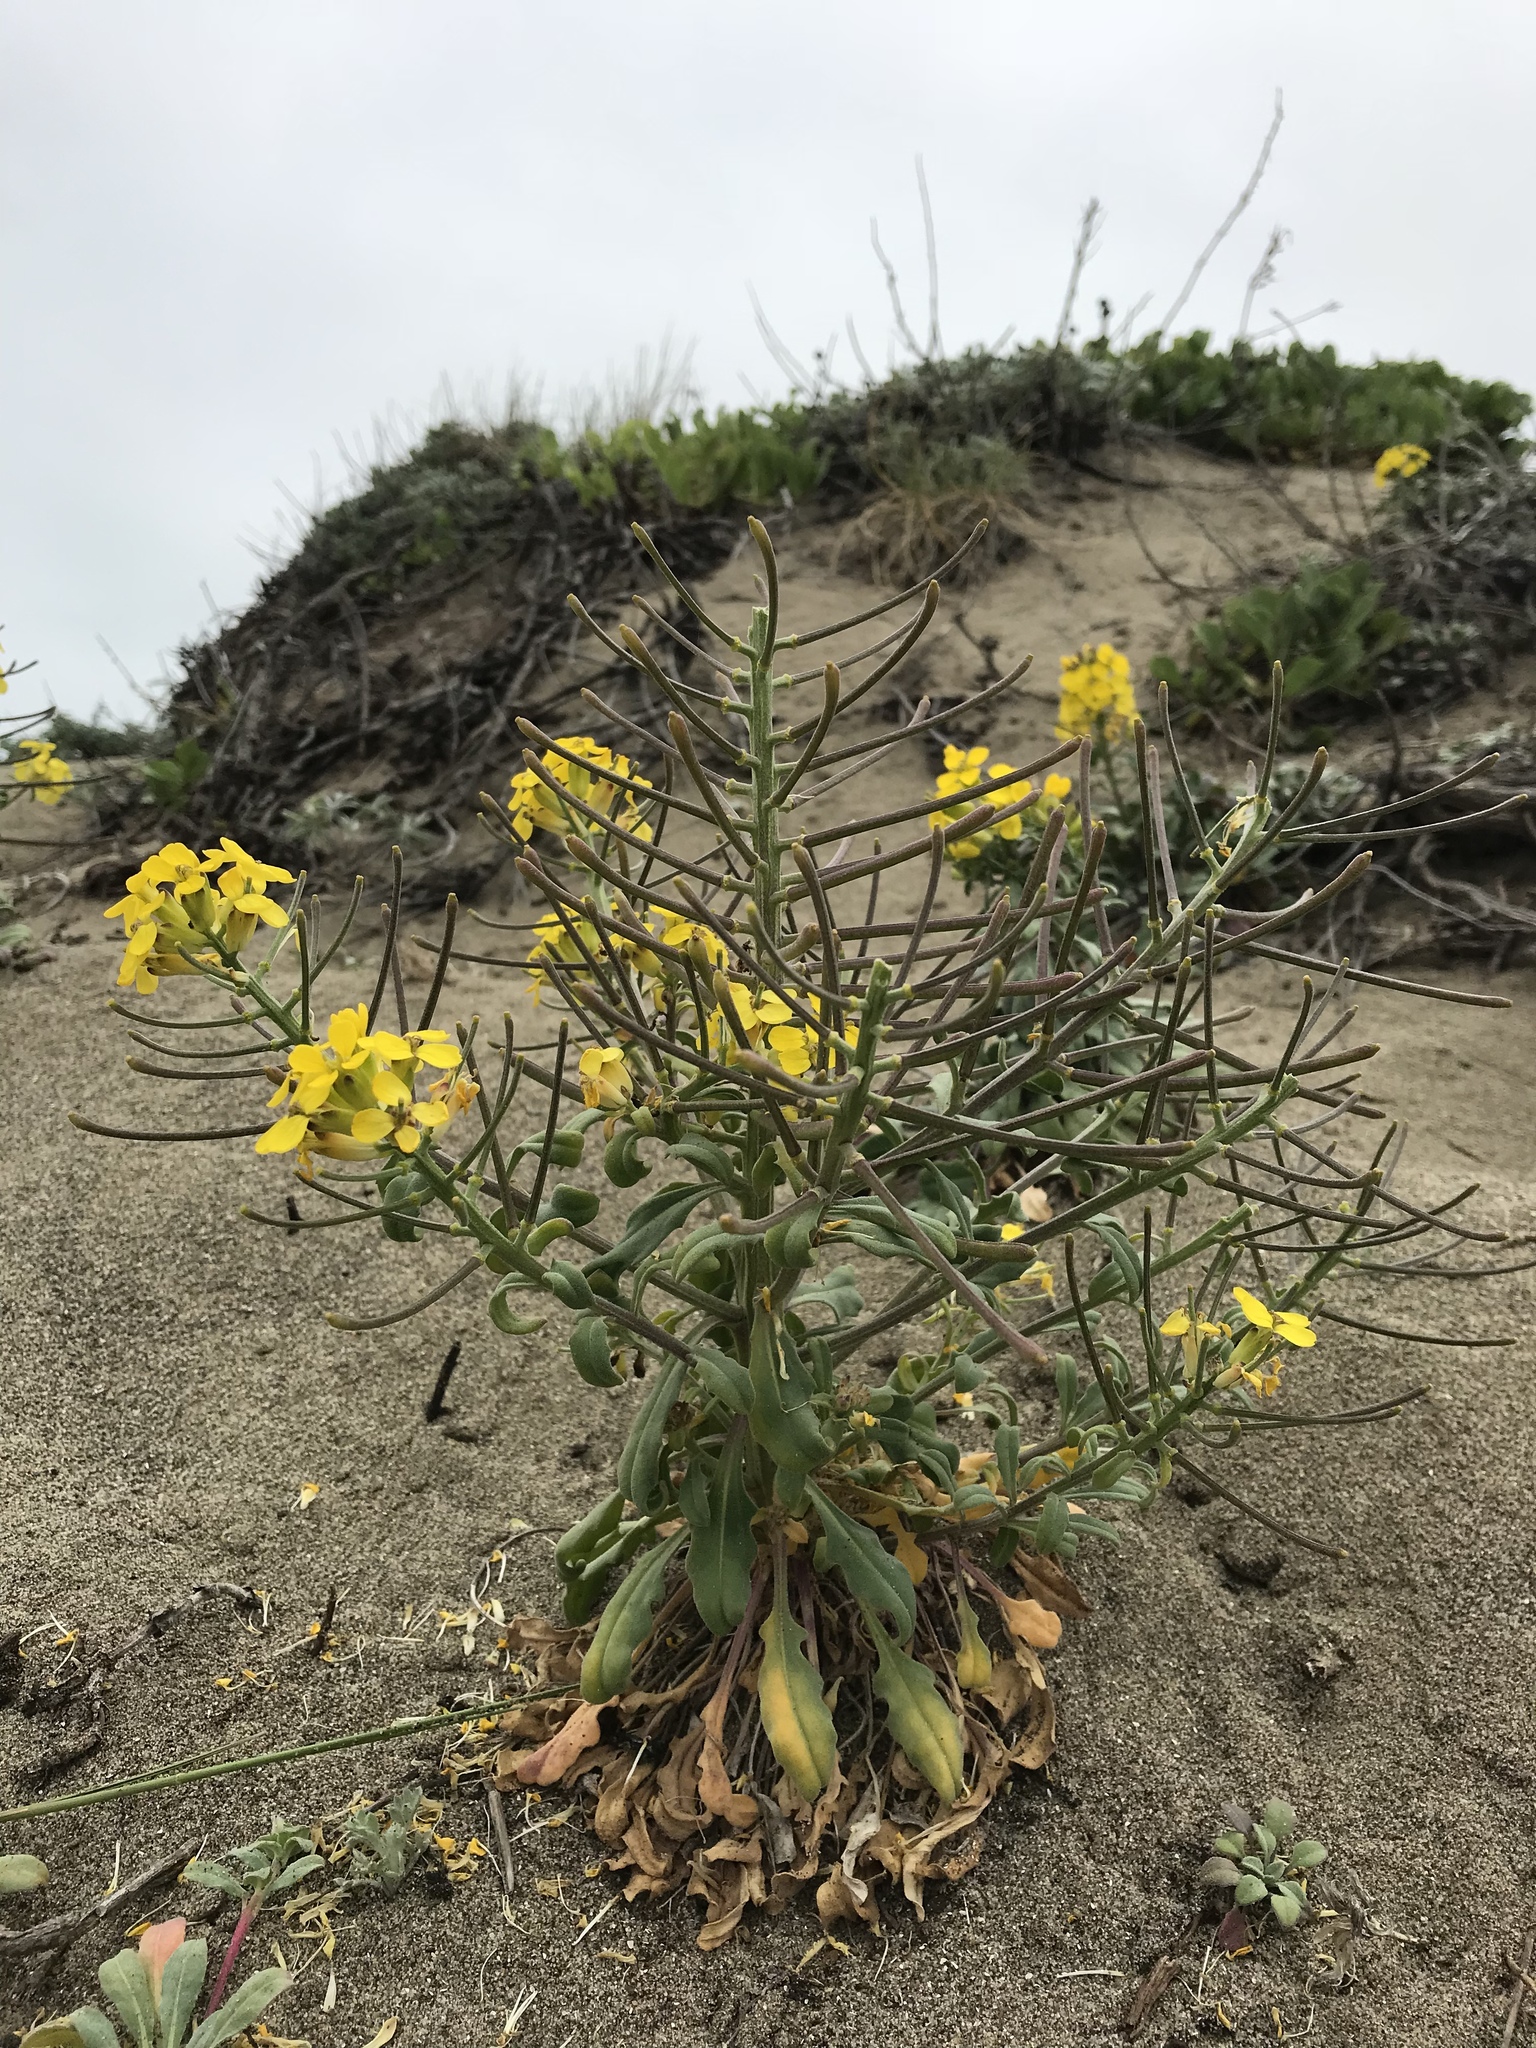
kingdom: Plantae
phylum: Tracheophyta
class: Magnoliopsida
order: Brassicales
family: Brassicaceae
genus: Erysimum
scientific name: Erysimum menziesii
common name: Menzies's wallflower
